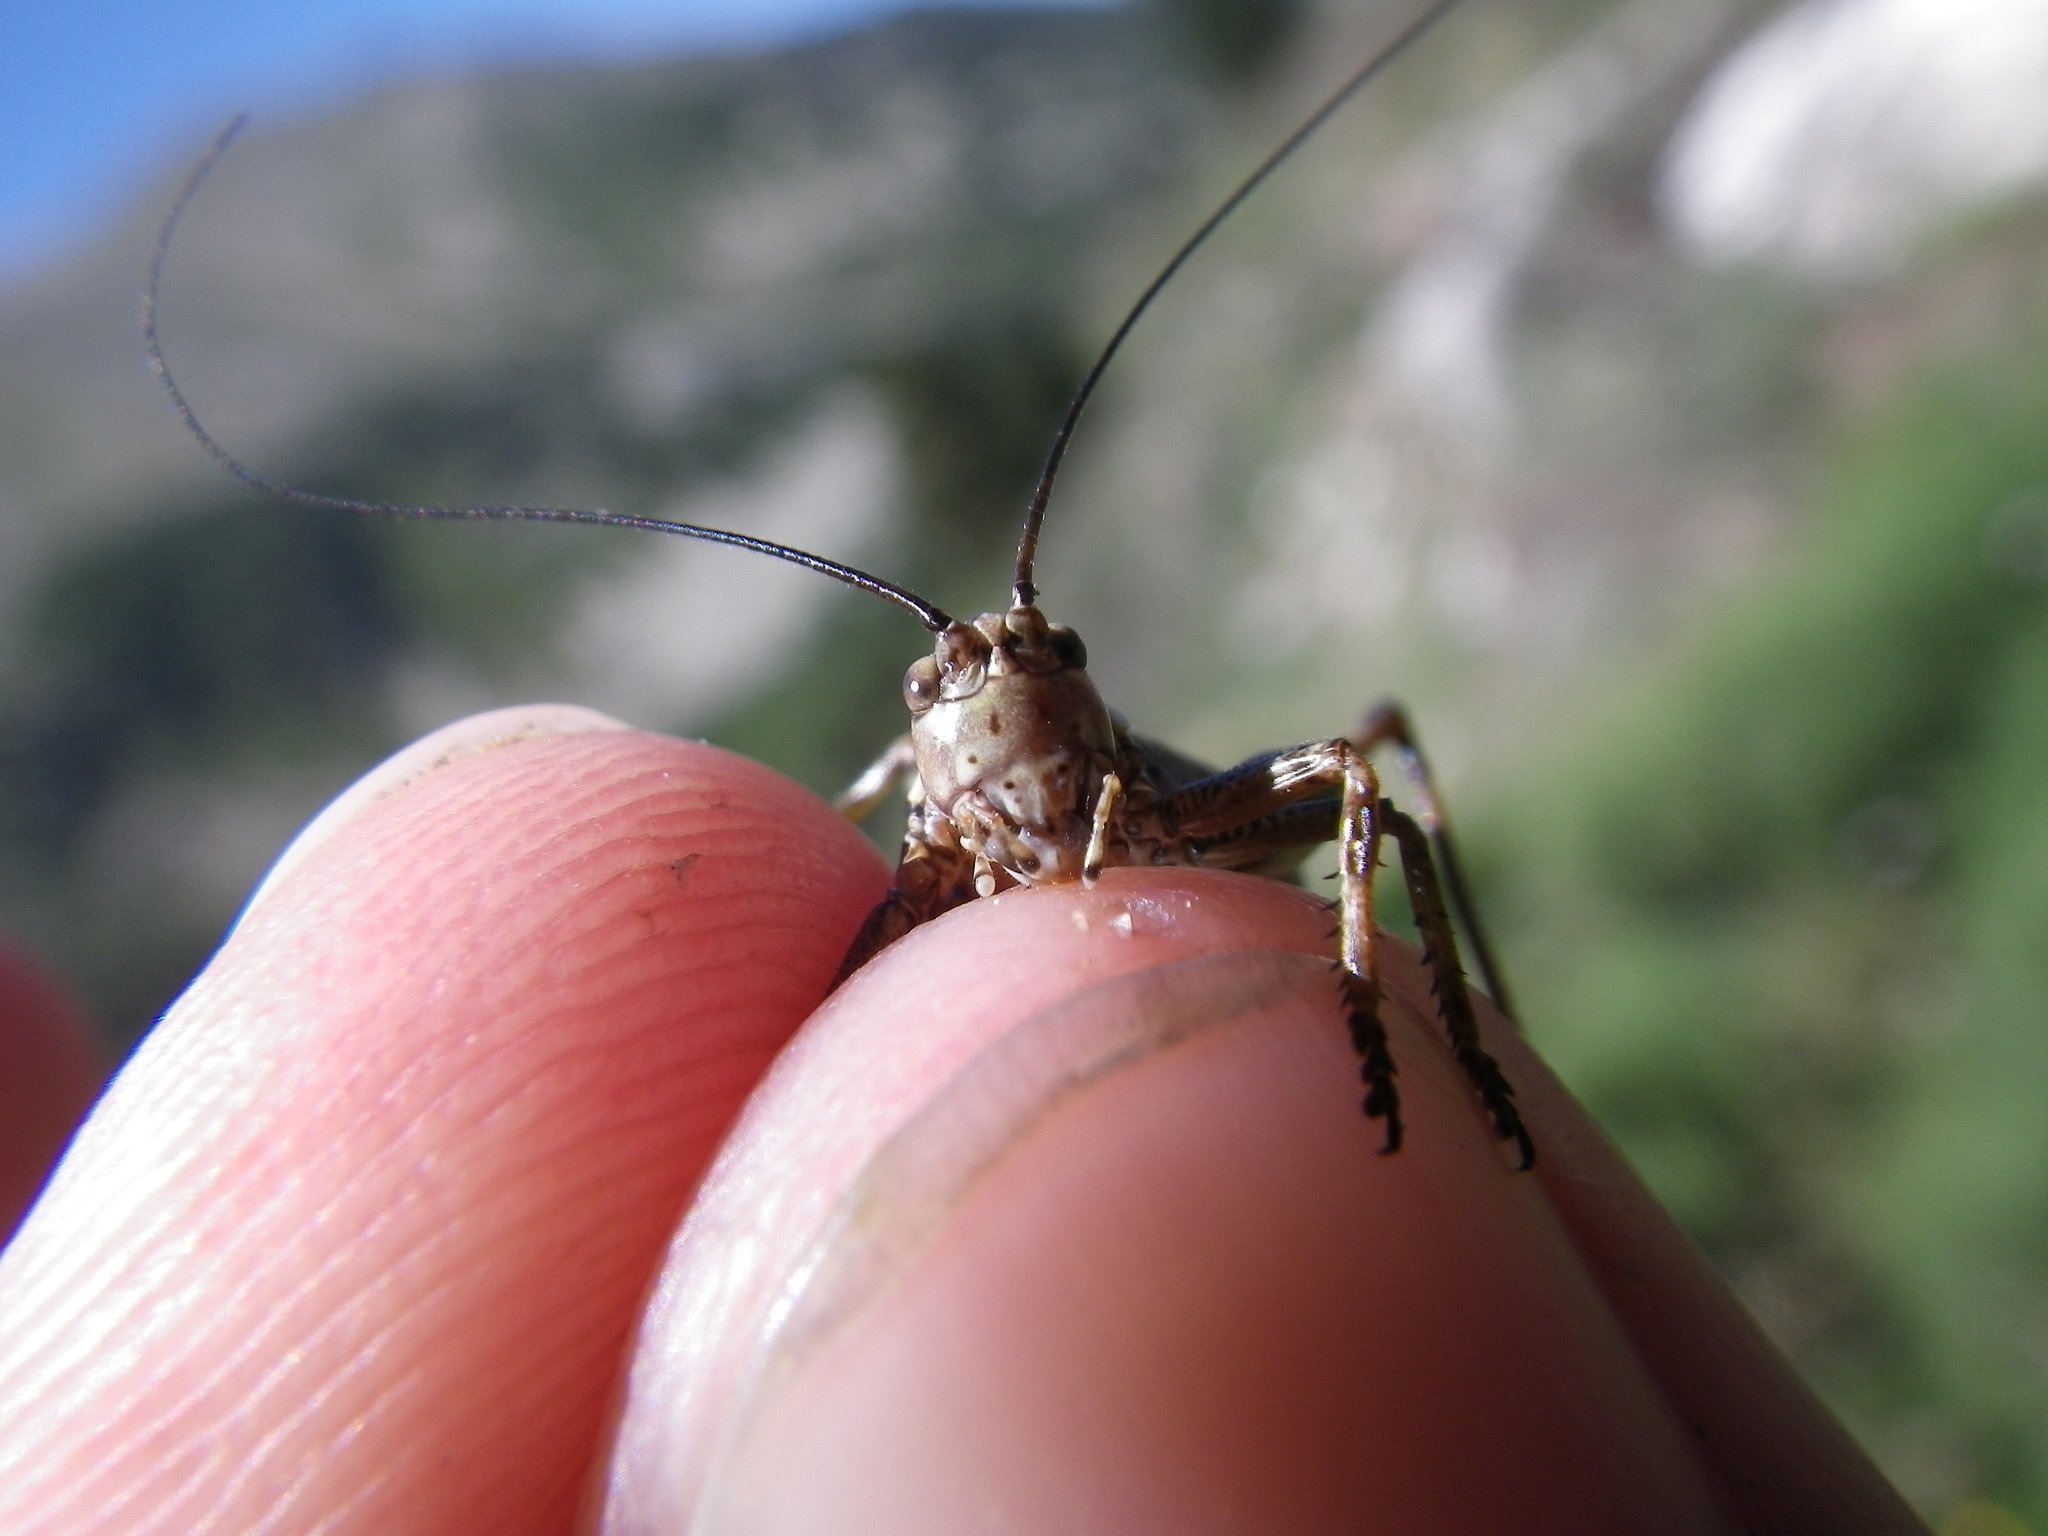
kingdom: Animalia
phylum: Arthropoda
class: Insecta
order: Orthoptera
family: Tettigoniidae
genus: Antaxius
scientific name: Antaxius hispanicus
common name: Pyrenean bush-cricket
